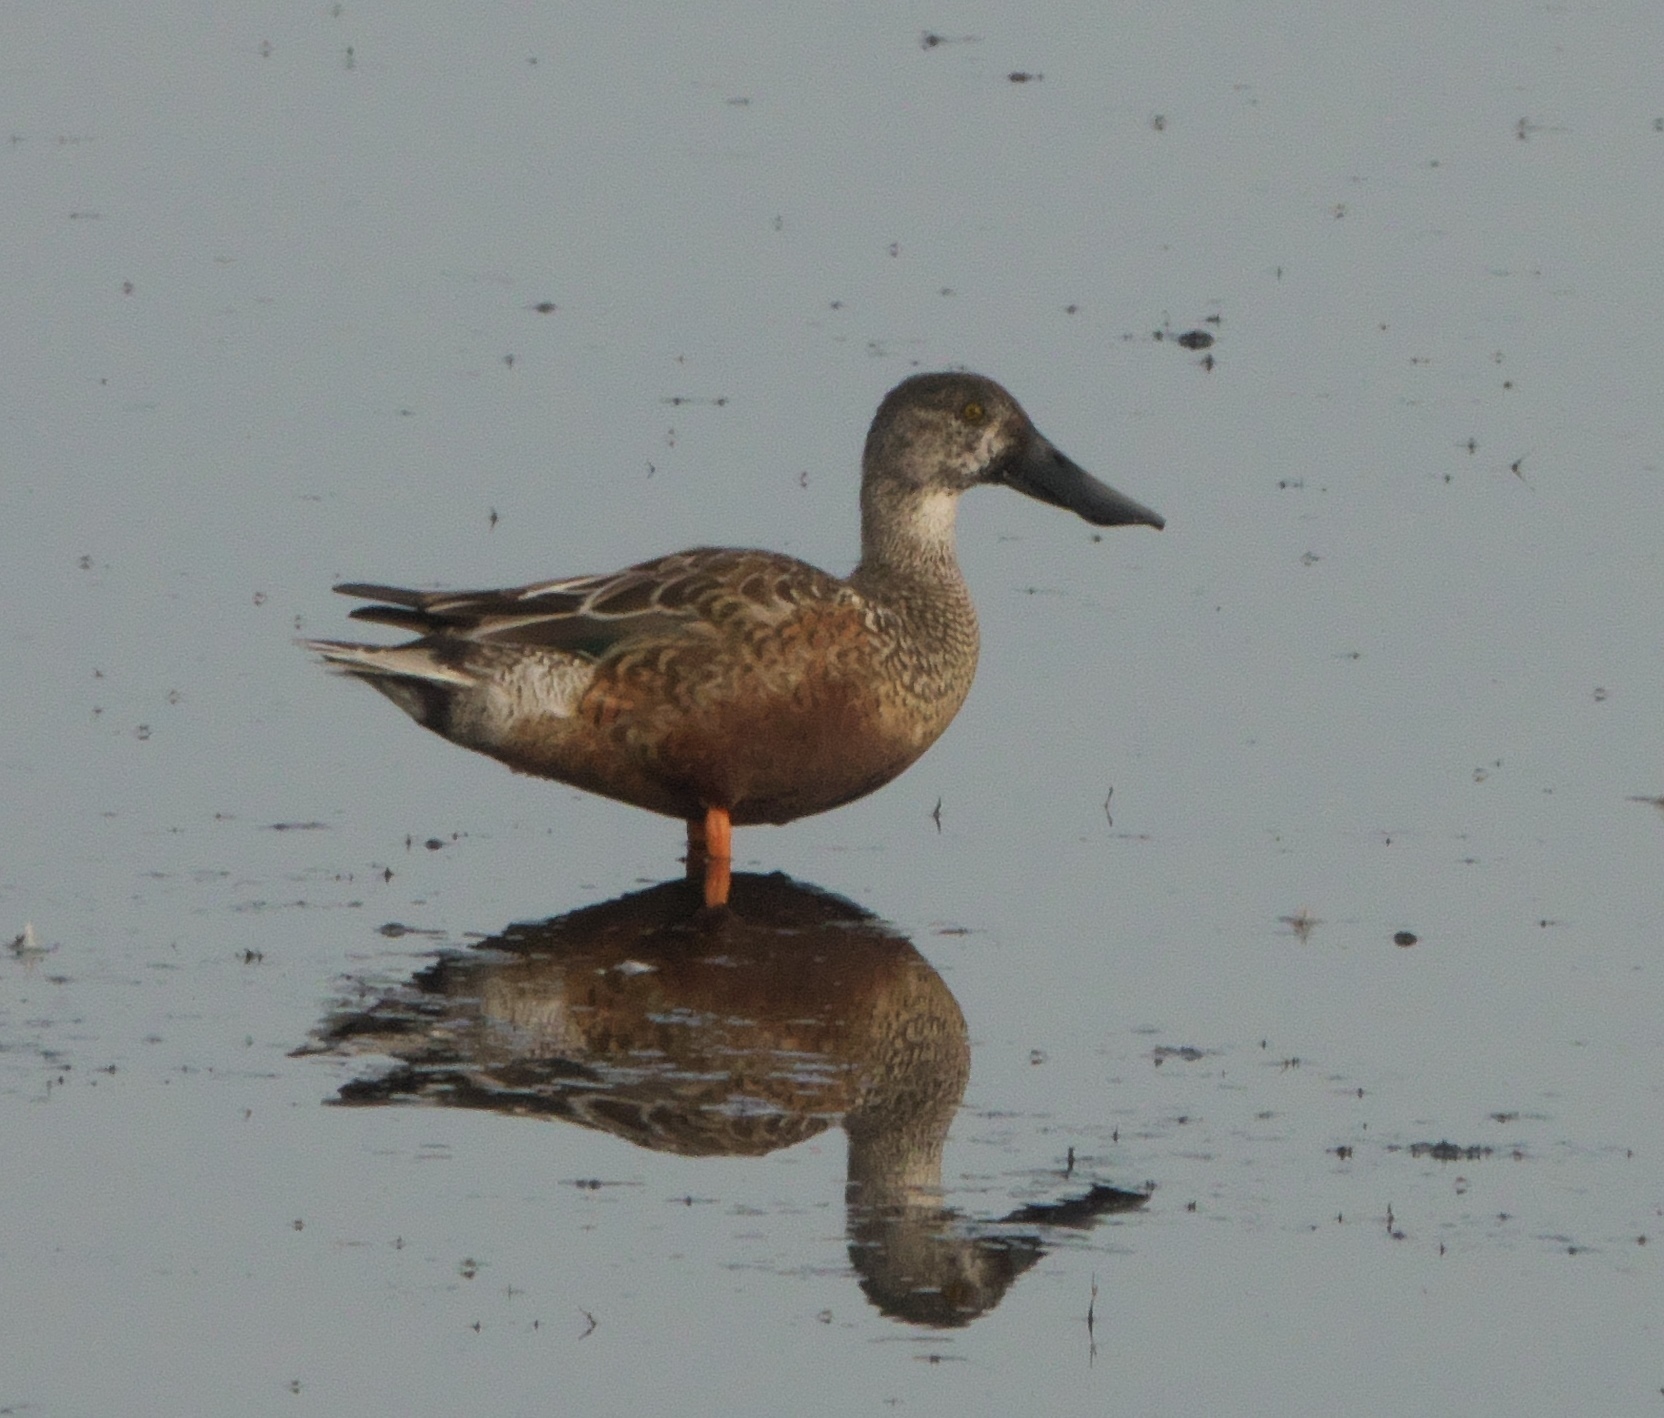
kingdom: Animalia
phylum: Chordata
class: Aves
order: Anseriformes
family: Anatidae
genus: Spatula
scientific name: Spatula clypeata
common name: Northern shoveler
